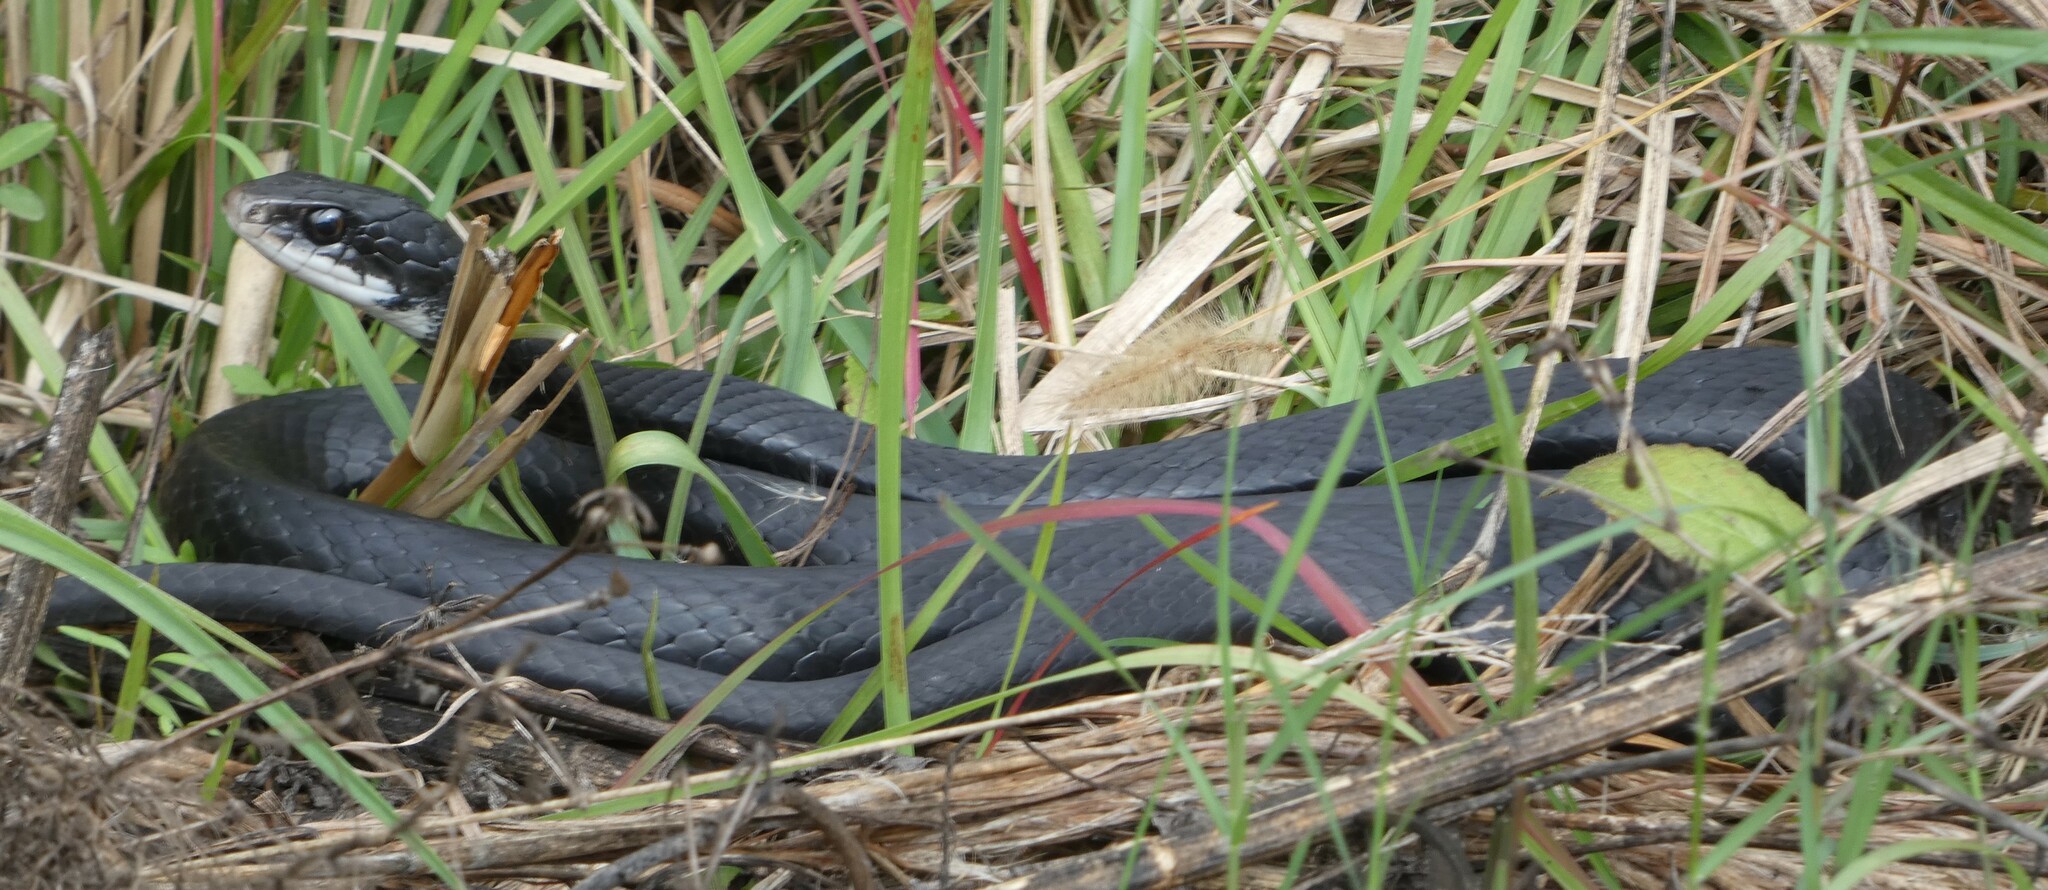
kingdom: Animalia
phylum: Chordata
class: Squamata
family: Colubridae
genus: Coluber
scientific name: Coluber constrictor
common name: Eastern racer
